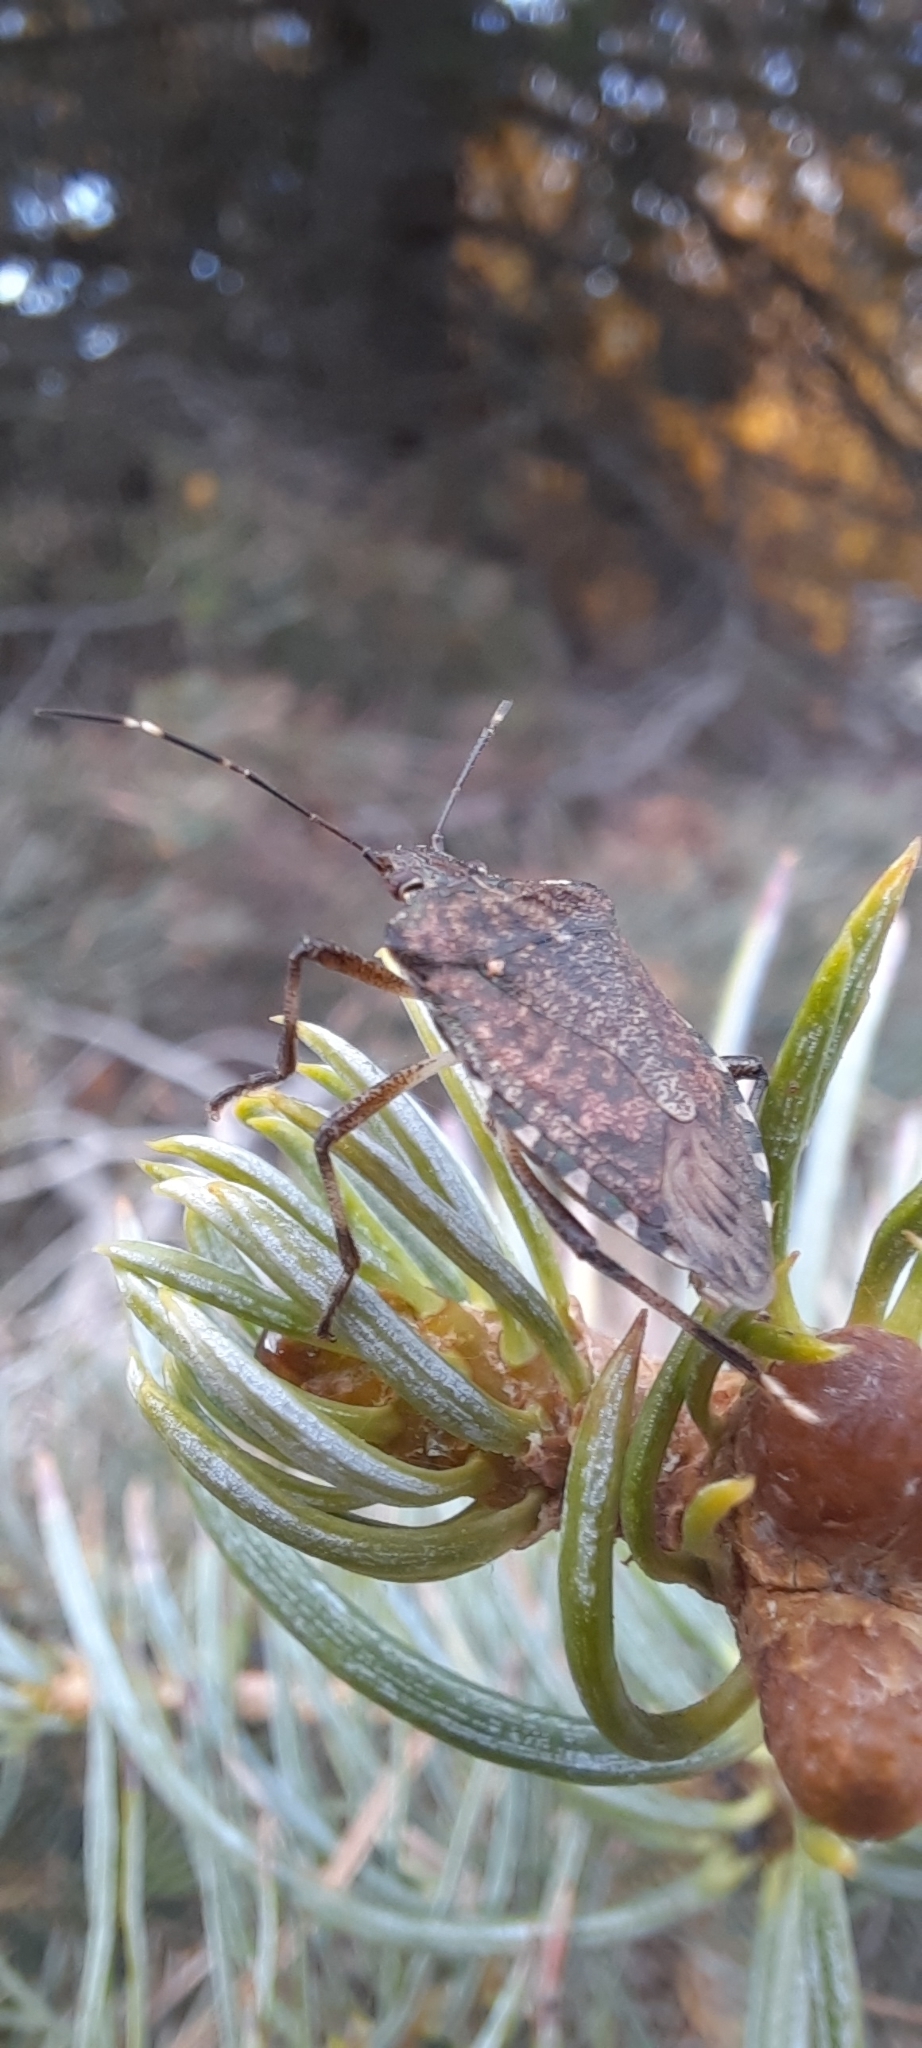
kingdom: Animalia
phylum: Arthropoda
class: Insecta
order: Hemiptera
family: Pentatomidae
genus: Halyomorpha
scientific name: Halyomorpha halys
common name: Brown marmorated stink bug
